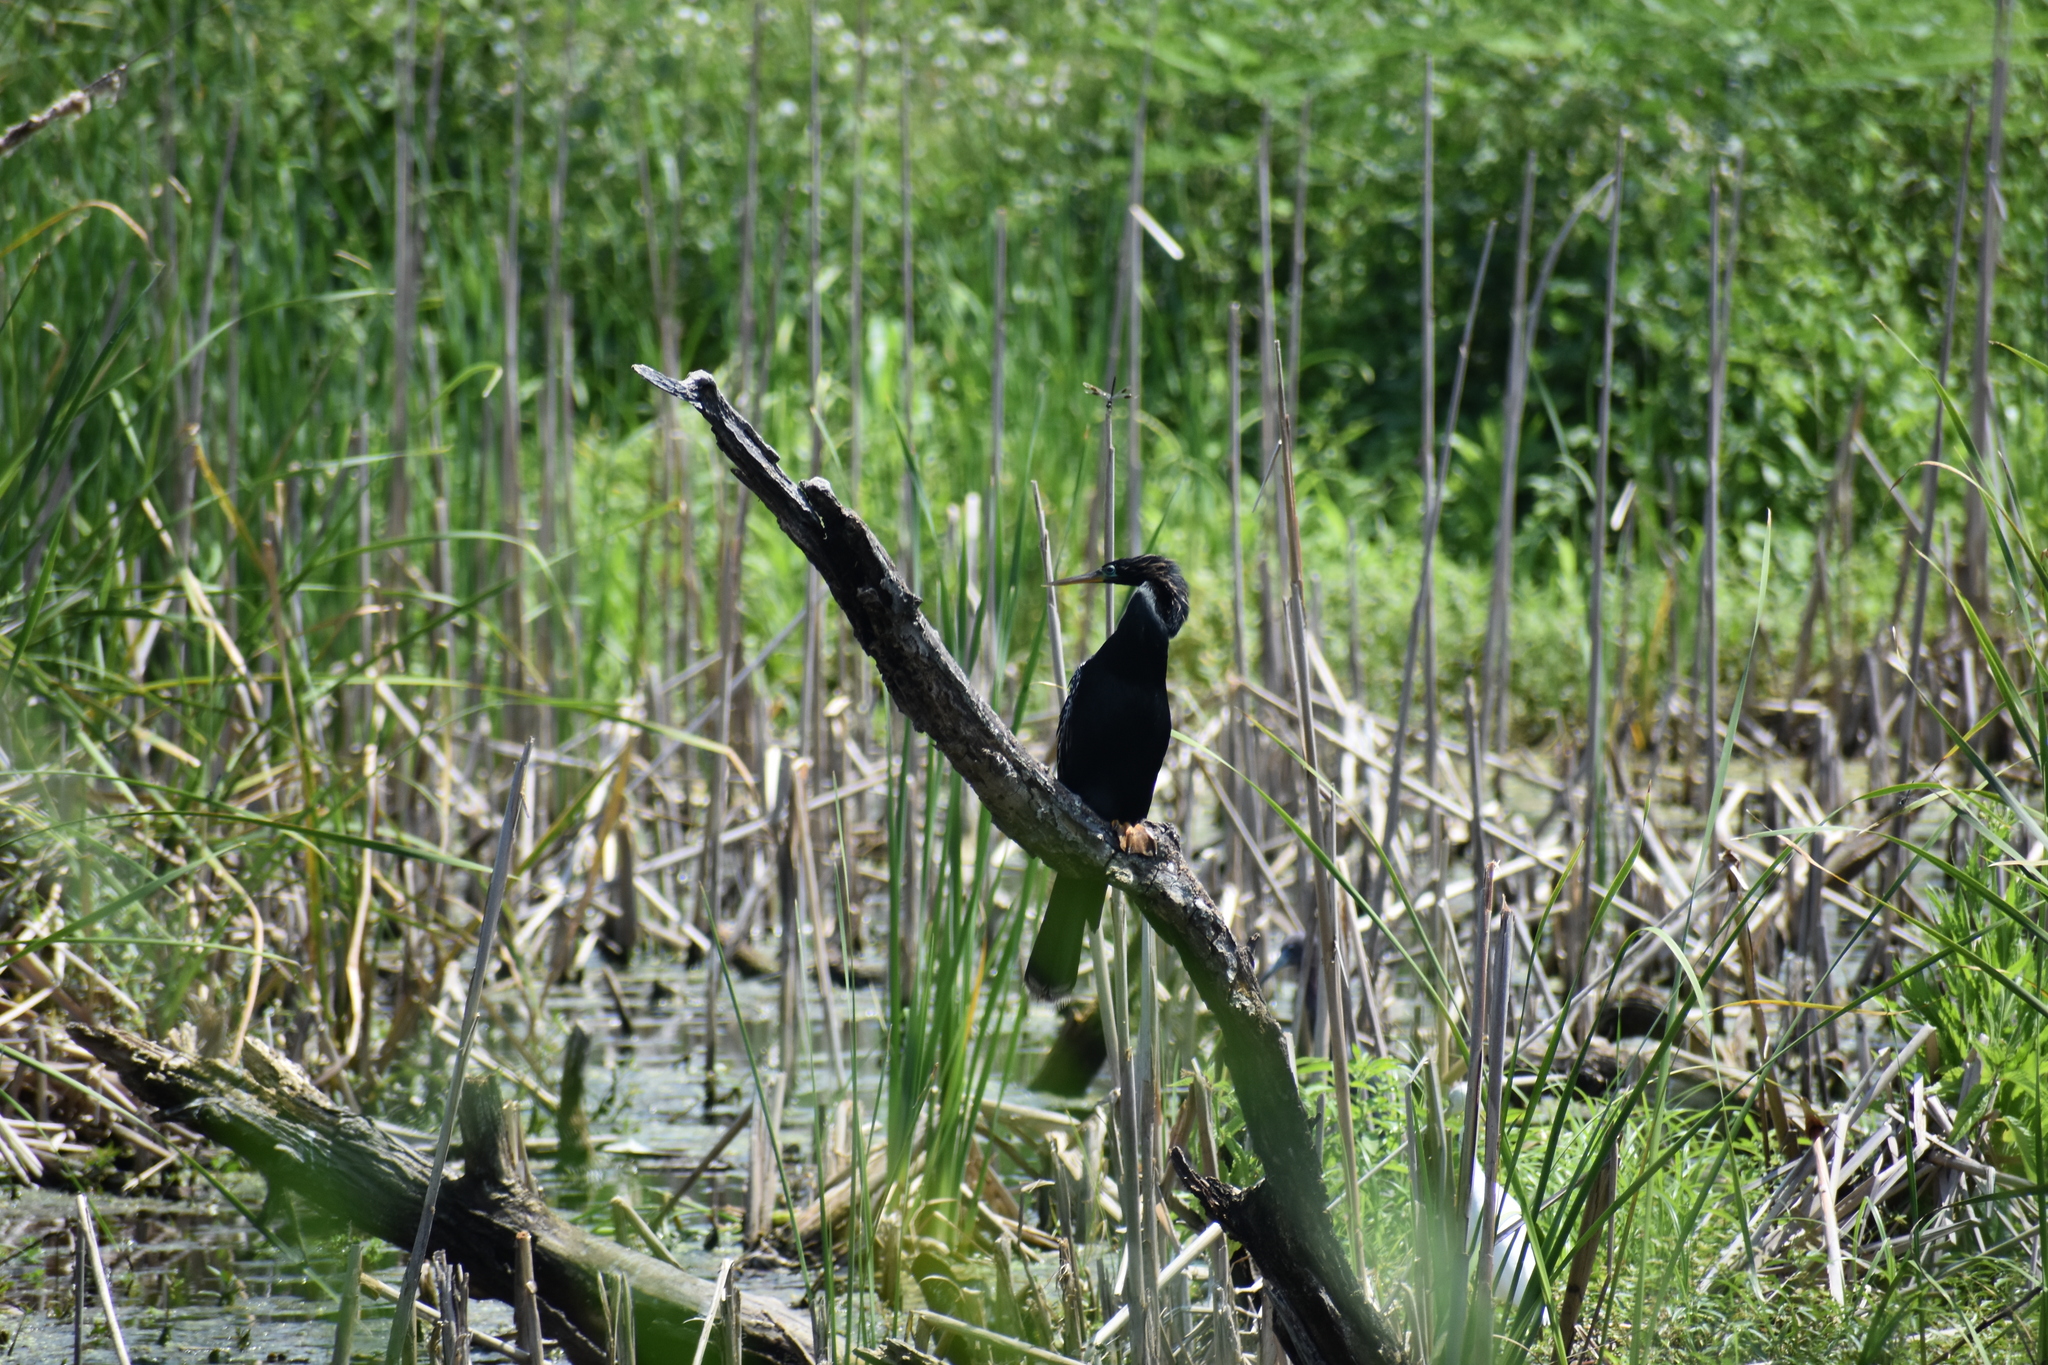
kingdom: Animalia
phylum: Chordata
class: Aves
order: Suliformes
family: Anhingidae
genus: Anhinga
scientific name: Anhinga anhinga
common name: Anhinga
